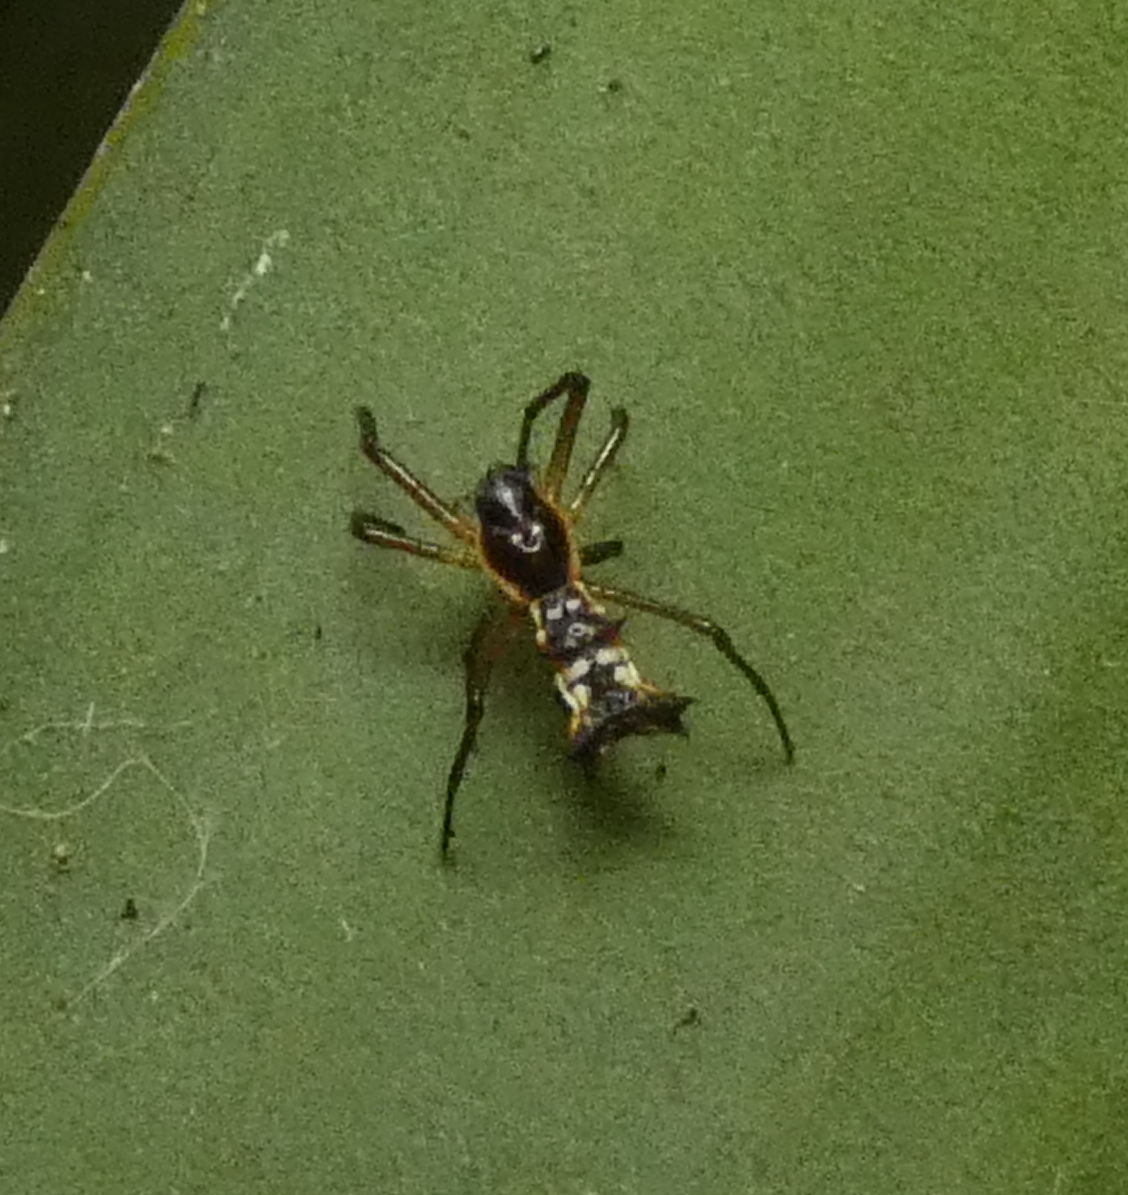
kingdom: Animalia
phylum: Arthropoda
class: Arachnida
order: Araneae
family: Araneidae
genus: Micrathena
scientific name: Micrathena fissispina
